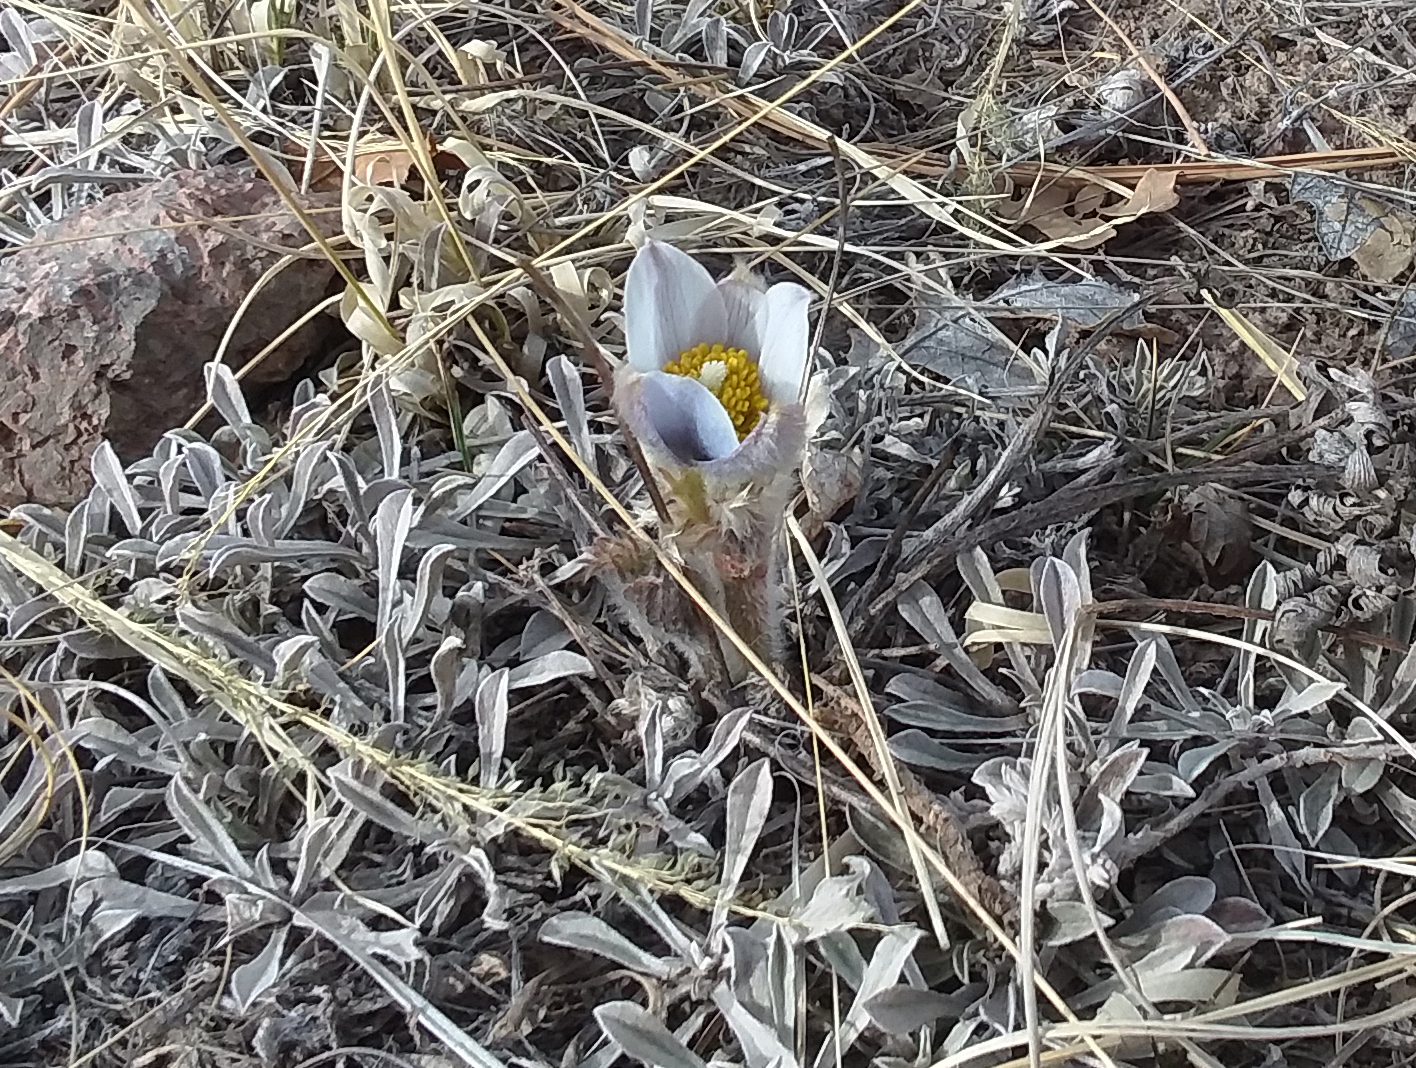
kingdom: Plantae
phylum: Tracheophyta
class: Magnoliopsida
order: Ranunculales
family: Ranunculaceae
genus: Pulsatilla
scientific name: Pulsatilla nuttalliana
